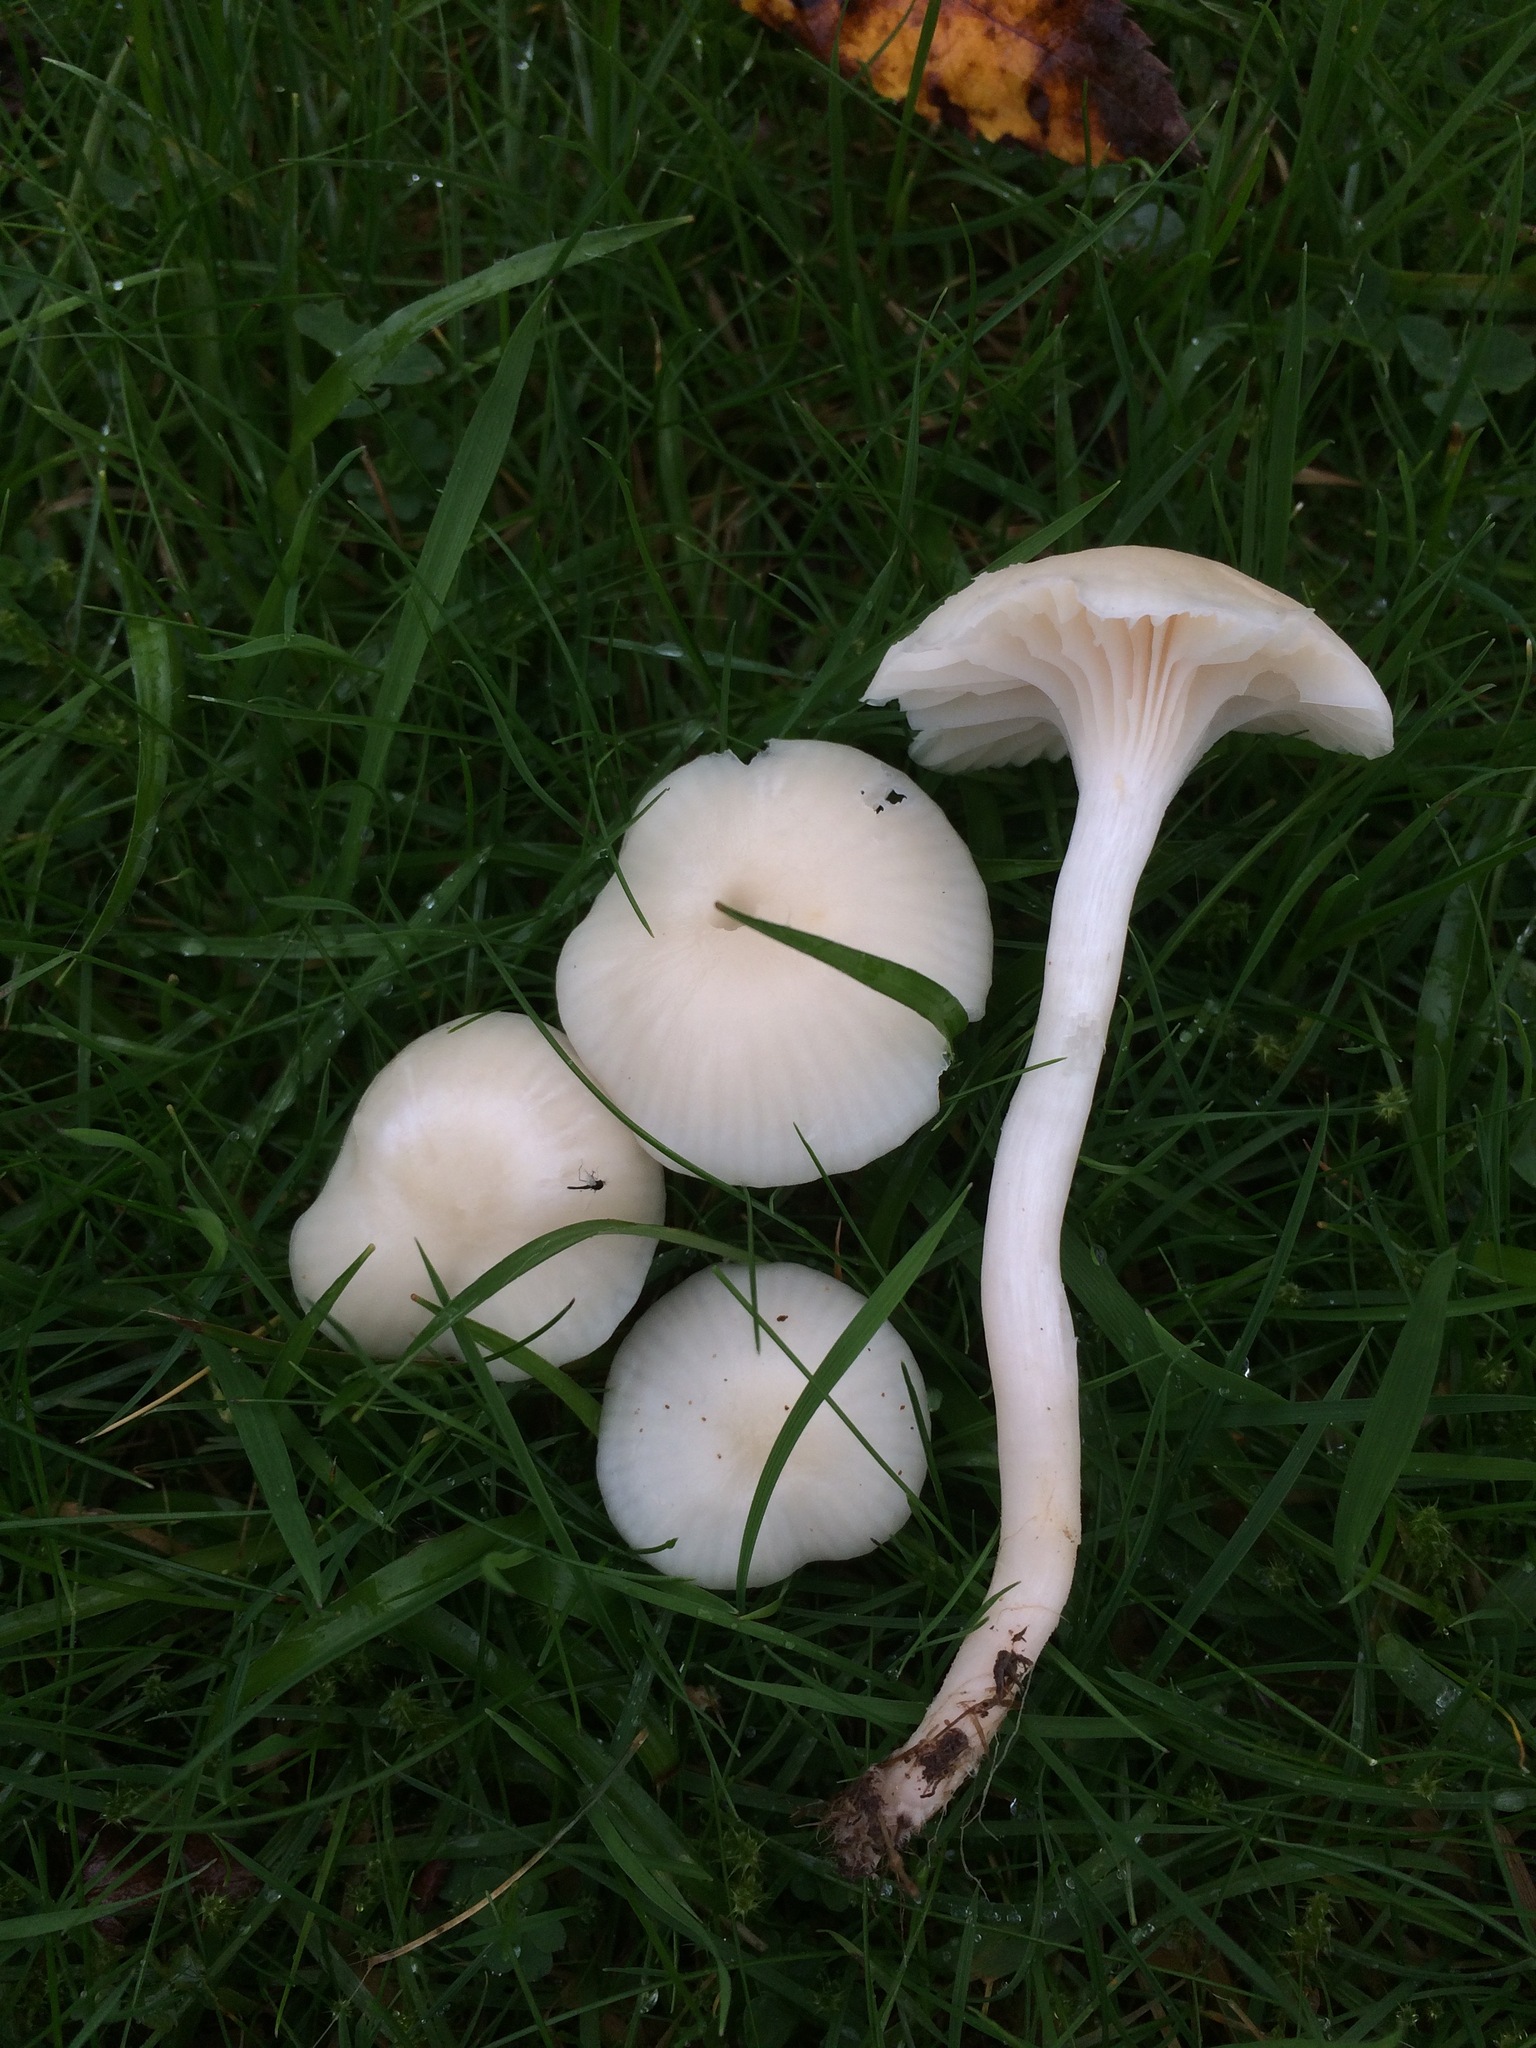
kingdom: Fungi
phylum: Basidiomycota
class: Agaricomycetes
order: Agaricales
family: Hygrophoraceae
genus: Cuphophyllus
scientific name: Cuphophyllus virgineus
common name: Snowy waxcap
